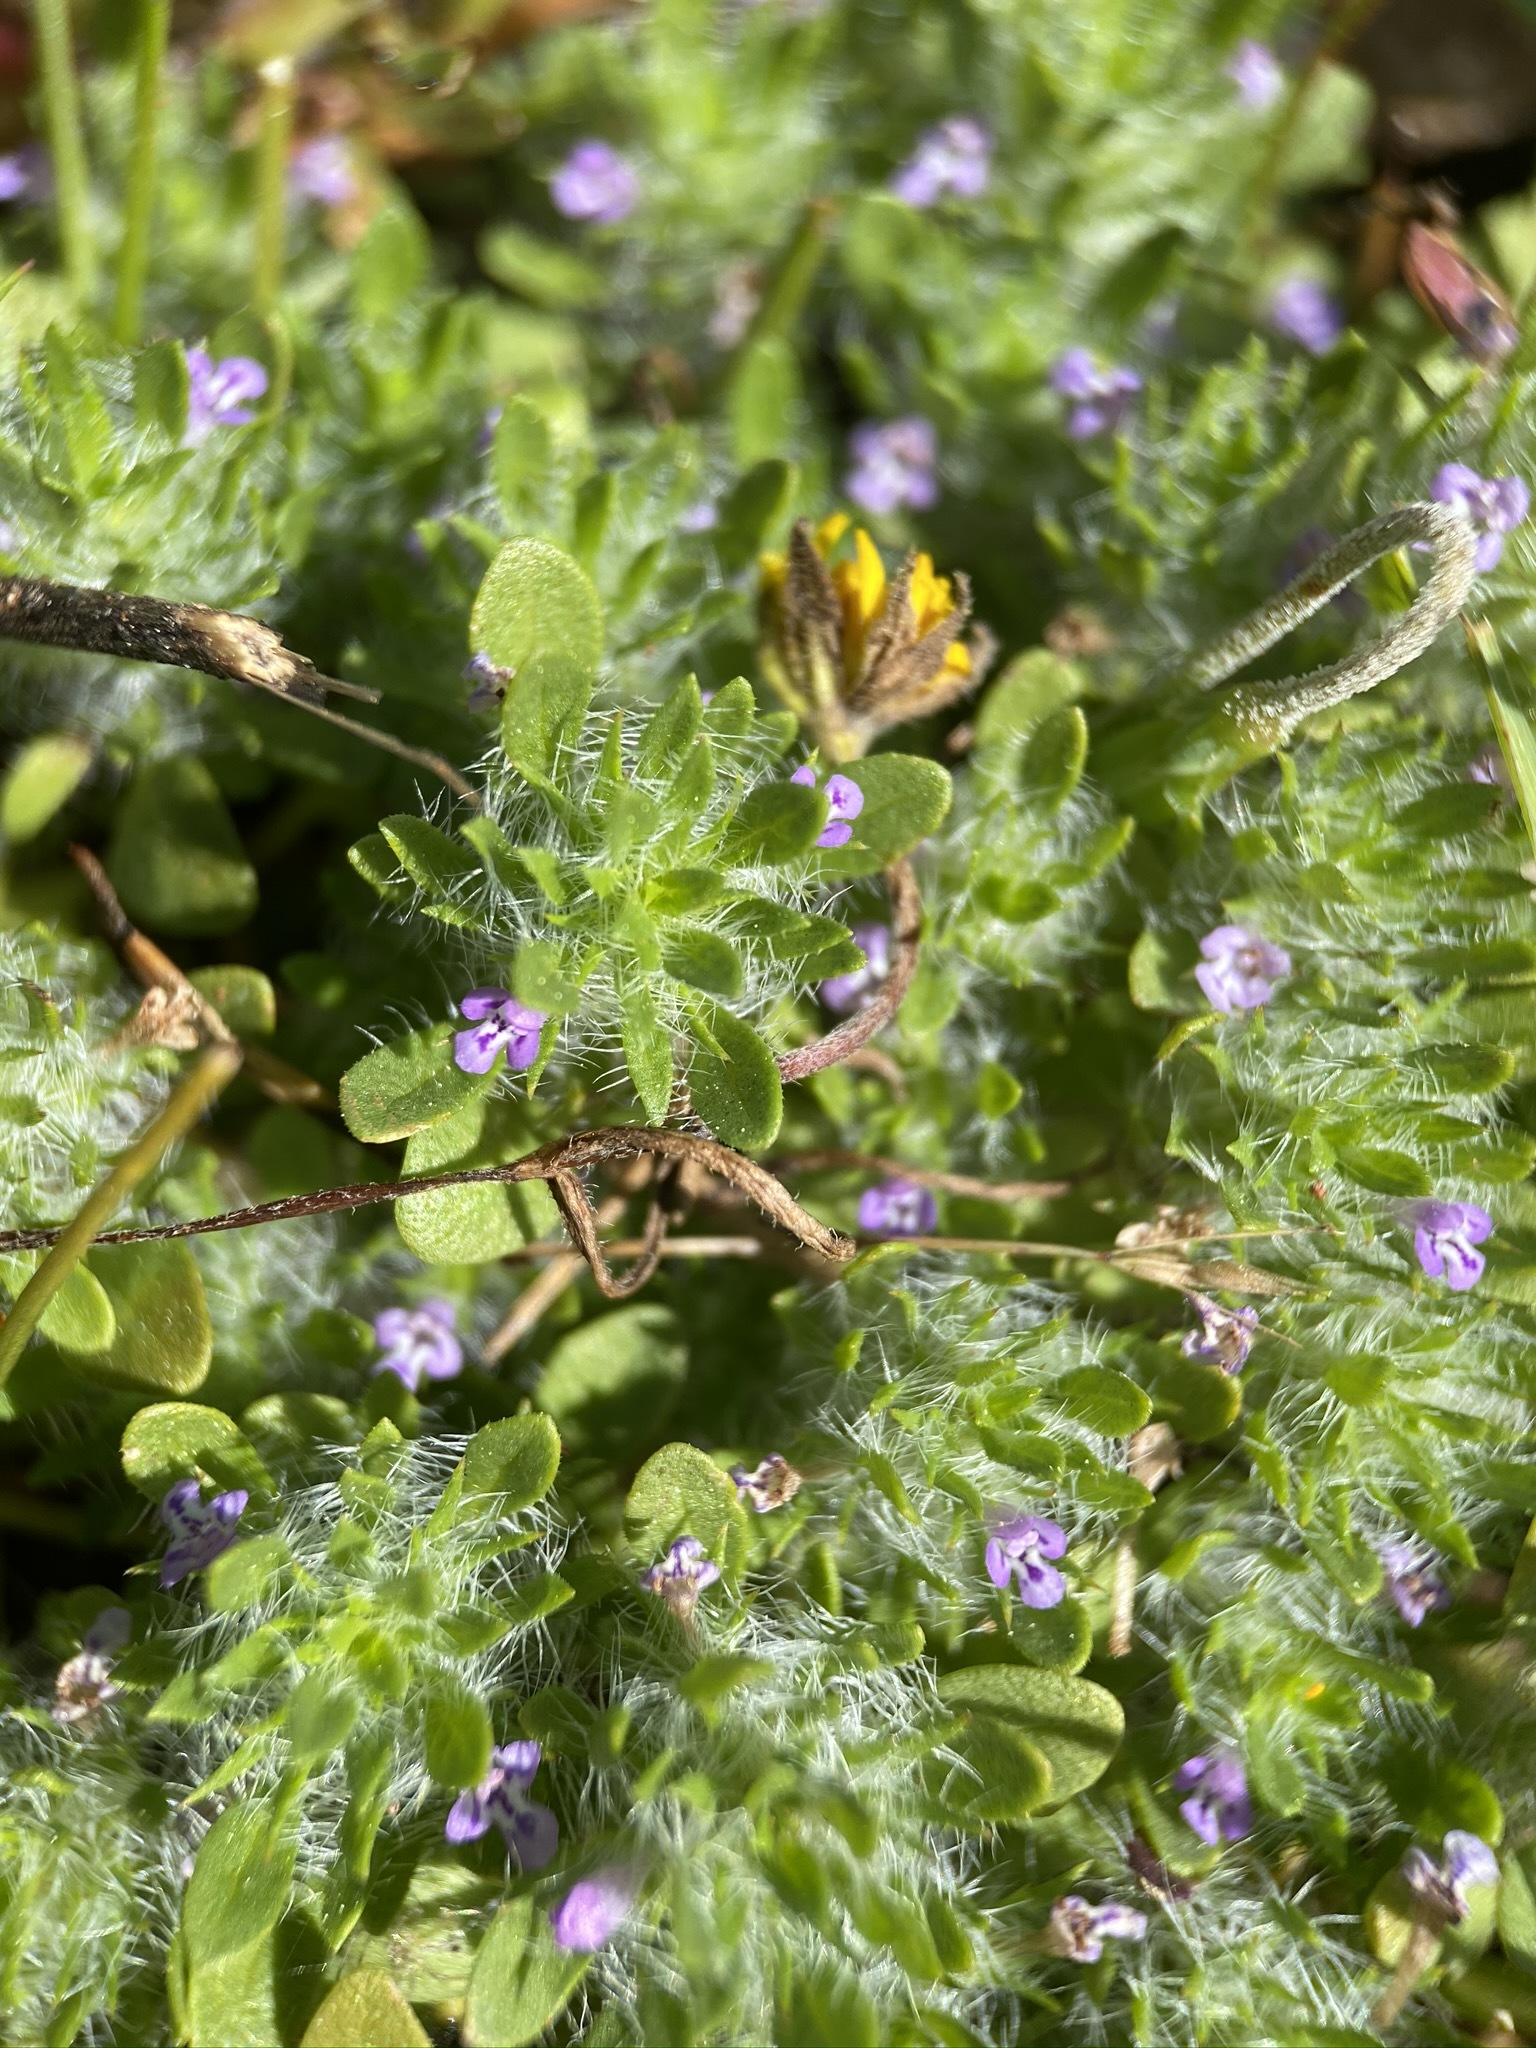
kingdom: Plantae
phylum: Tracheophyta
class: Magnoliopsida
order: Lamiales
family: Lamiaceae
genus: Pogogyne
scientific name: Pogogyne zizyphoroides
